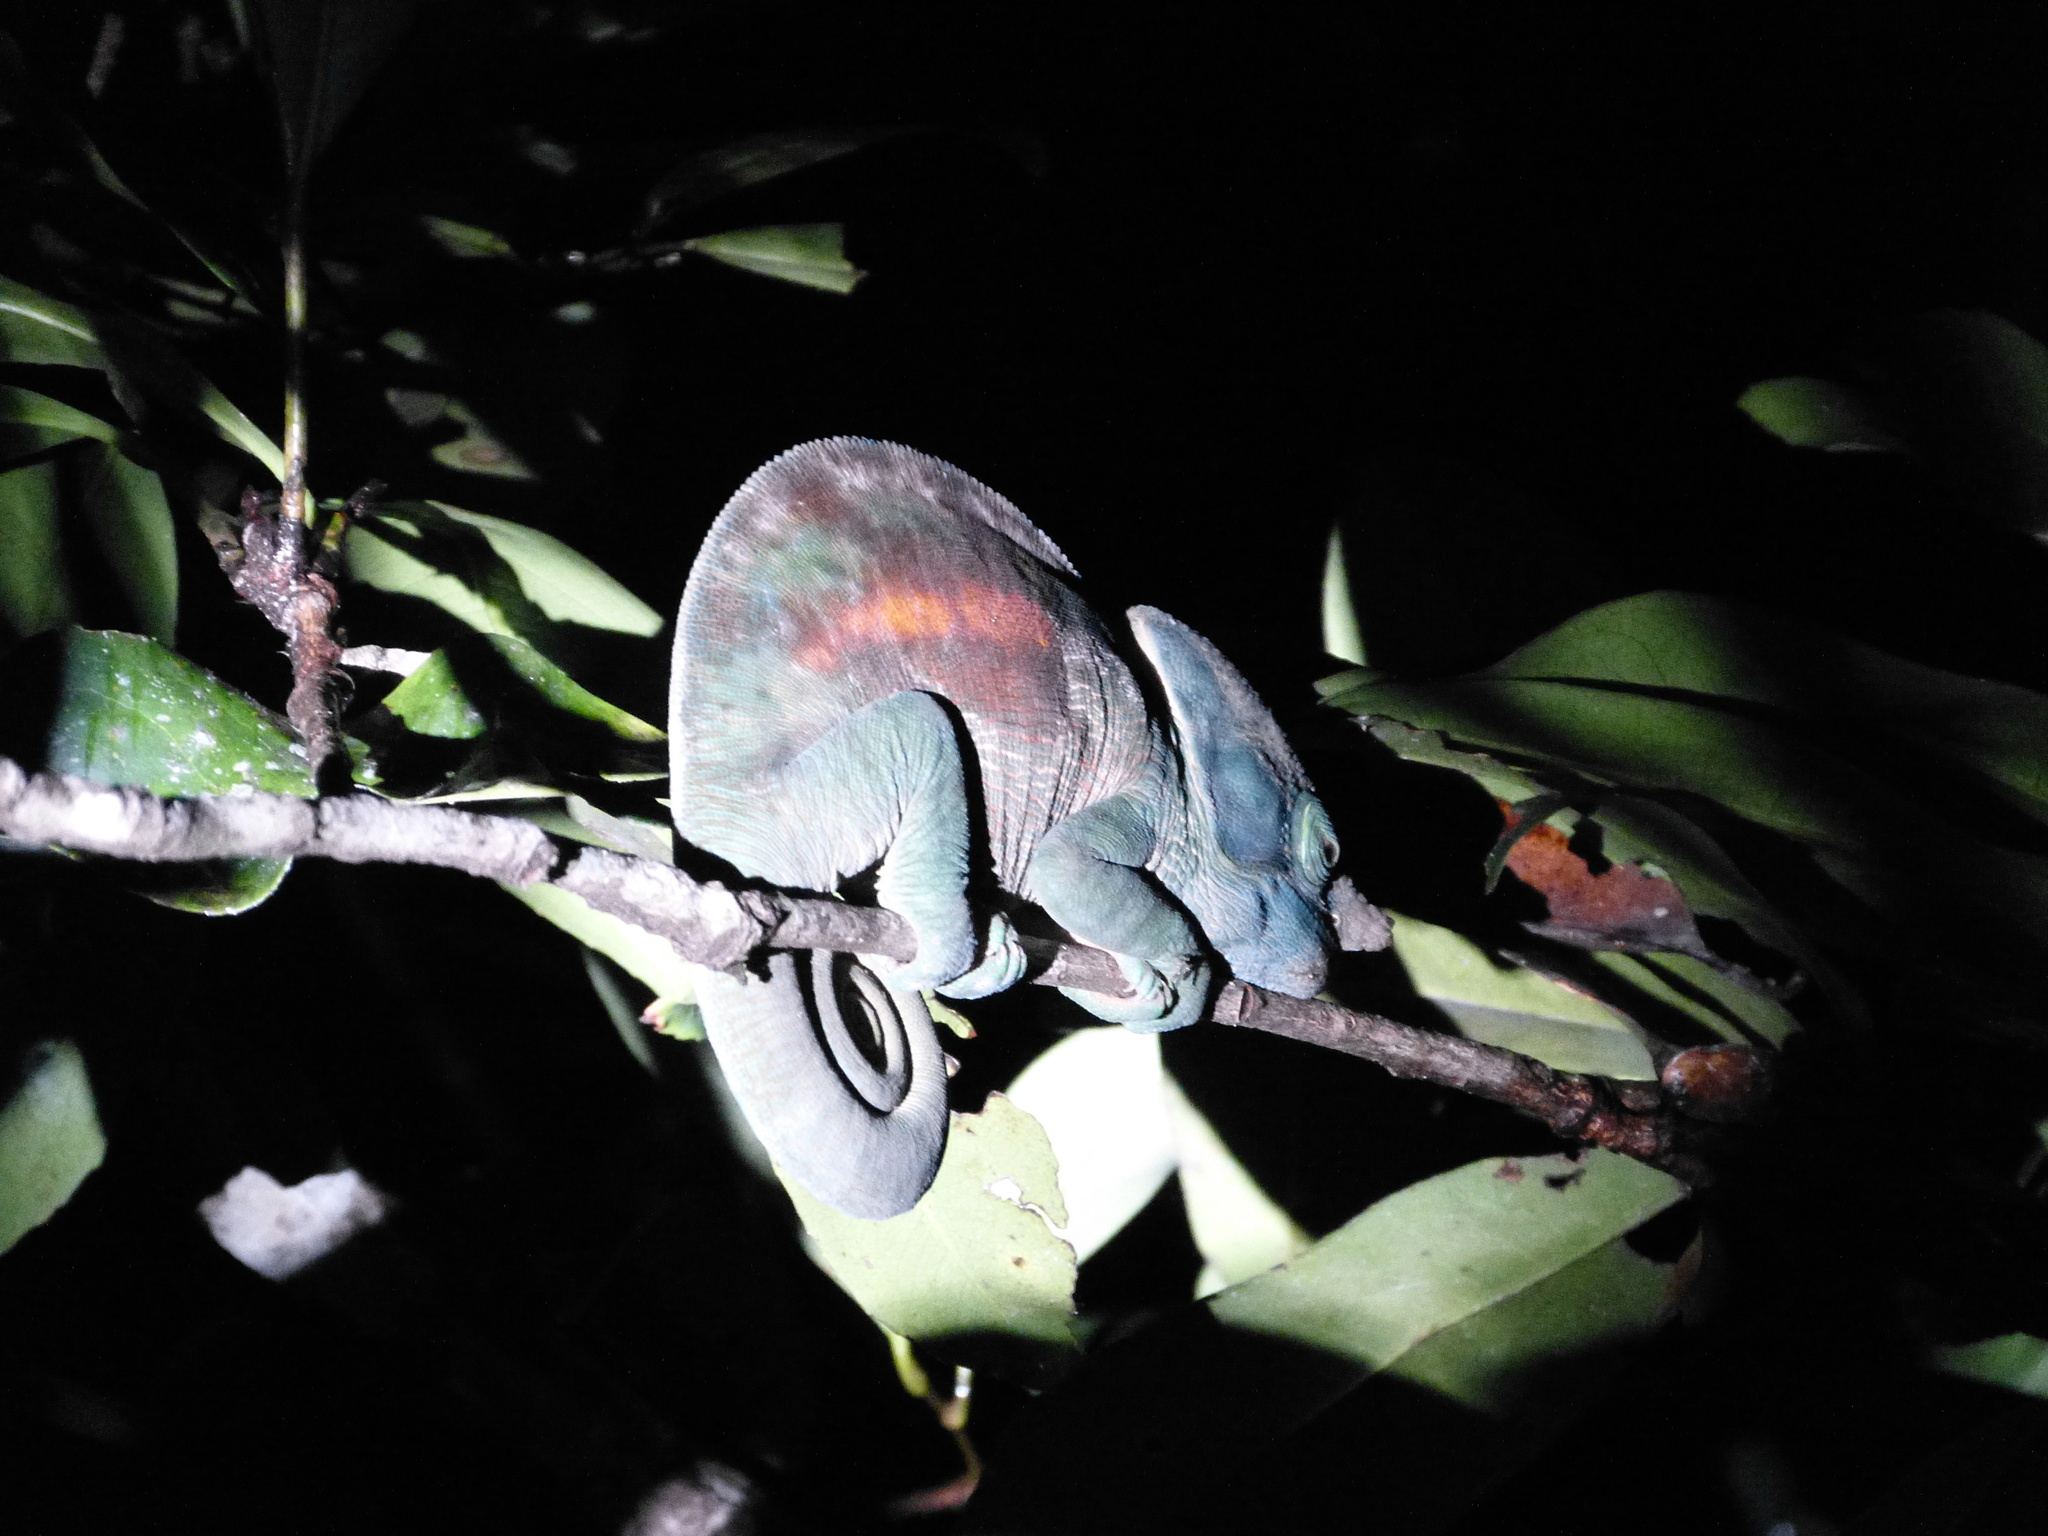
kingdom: Animalia
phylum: Chordata
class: Squamata
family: Chamaeleonidae
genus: Calumma
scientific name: Calumma parsonii
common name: Parson's chameleon
